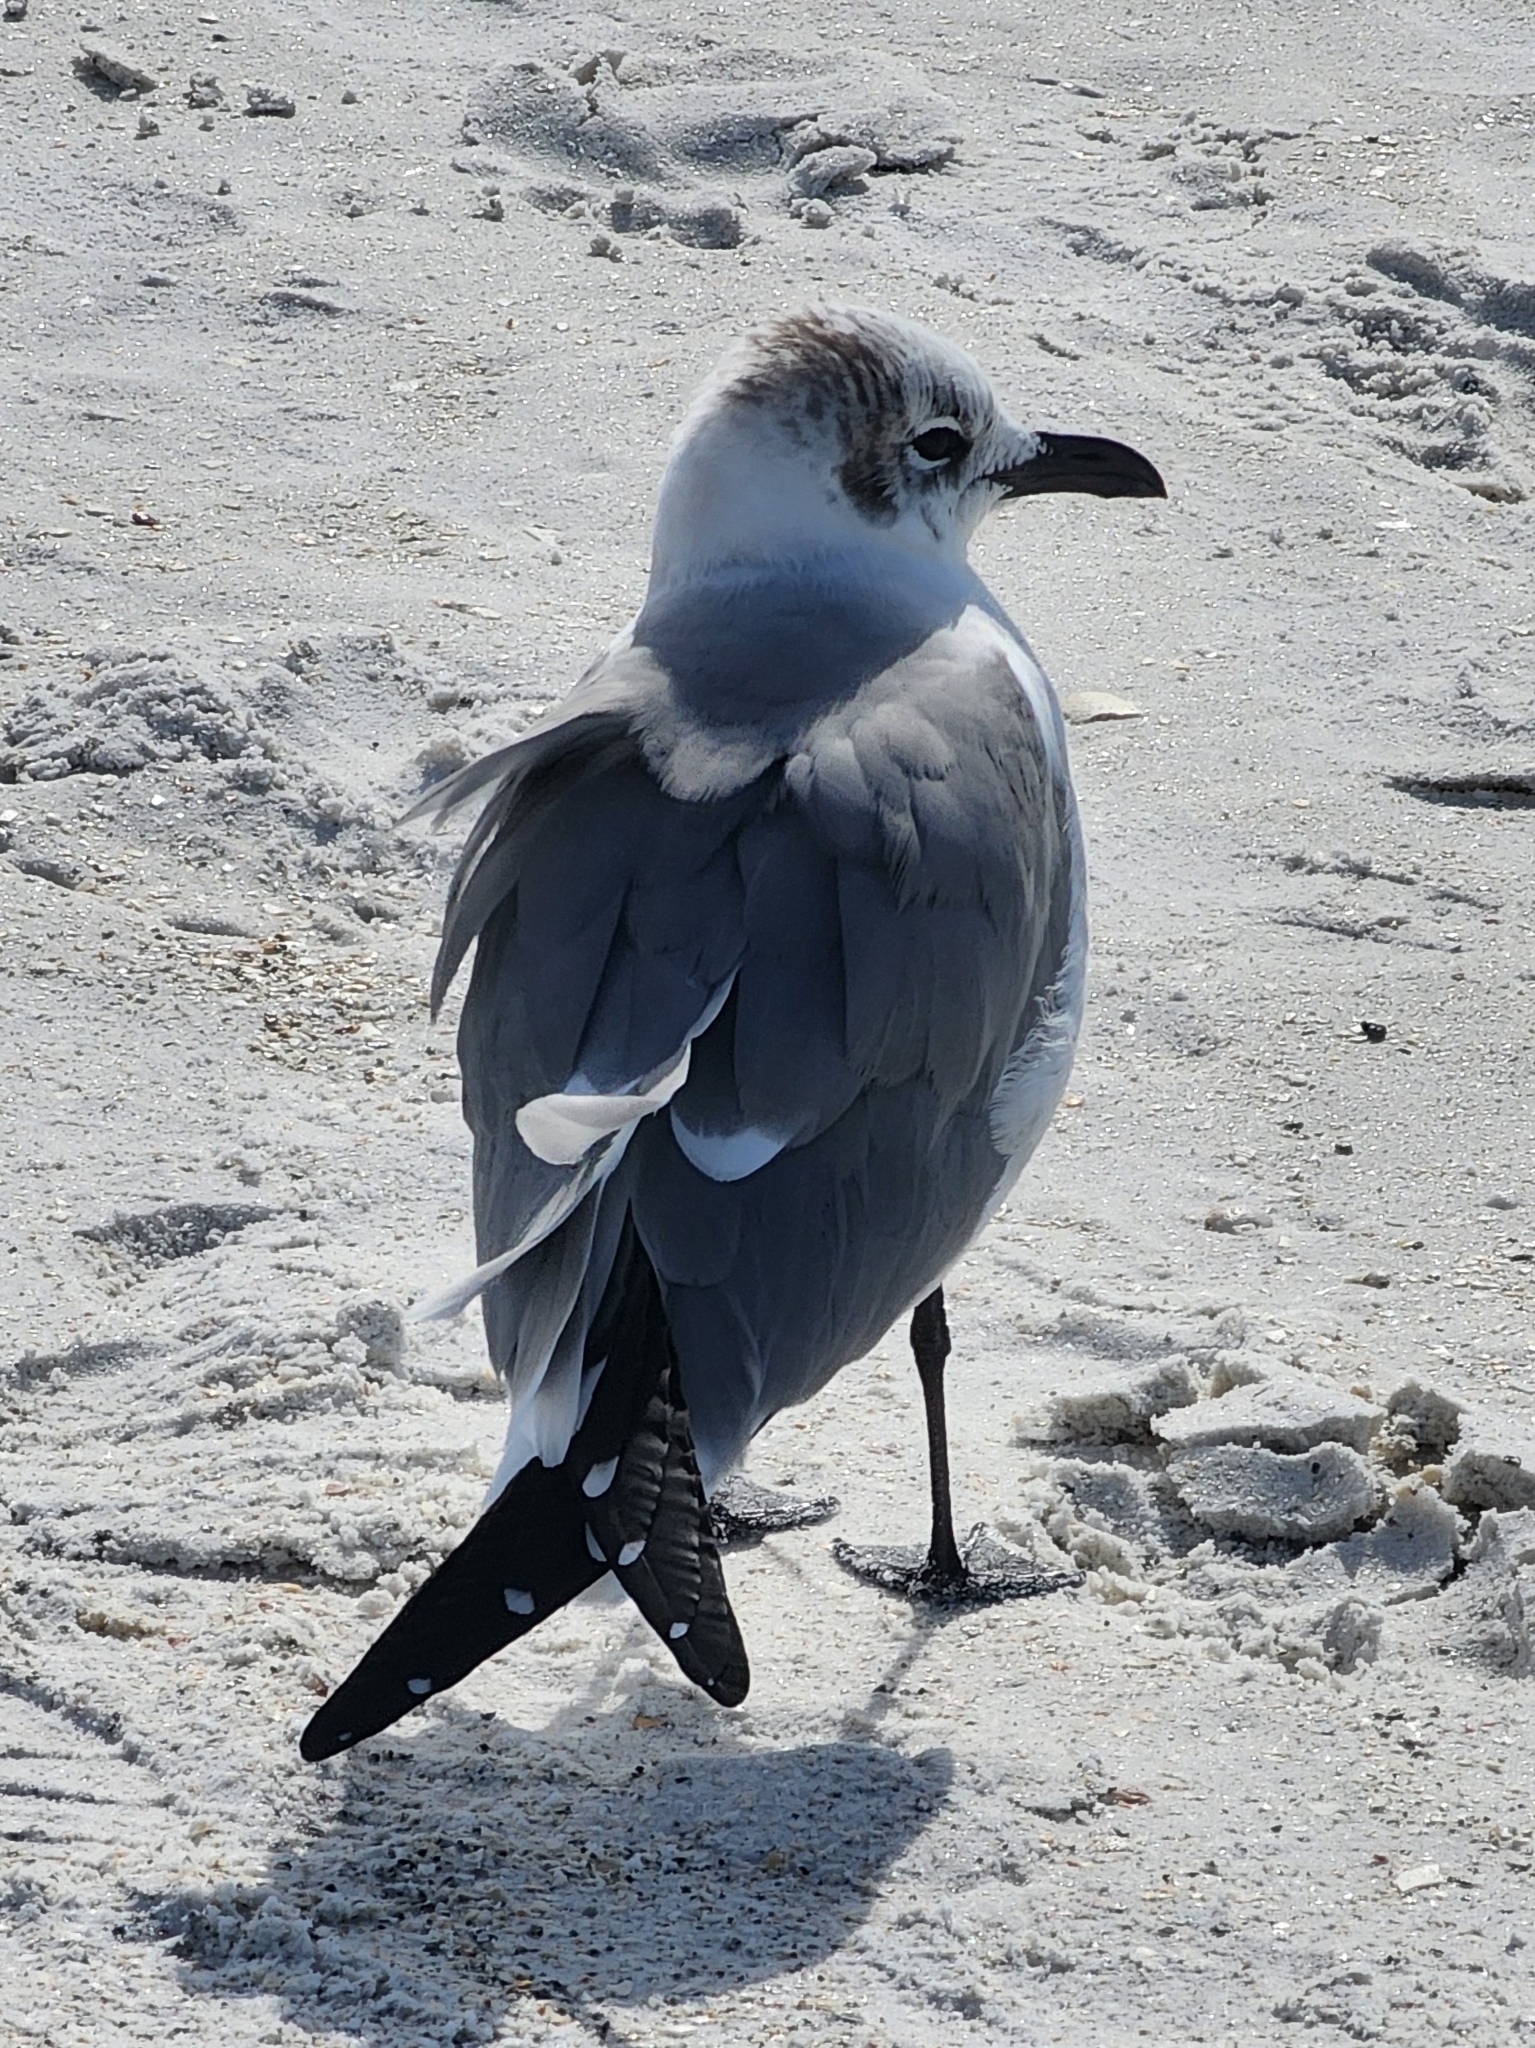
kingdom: Animalia
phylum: Chordata
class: Aves
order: Charadriiformes
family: Laridae
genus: Leucophaeus
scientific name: Leucophaeus atricilla
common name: Laughing gull
